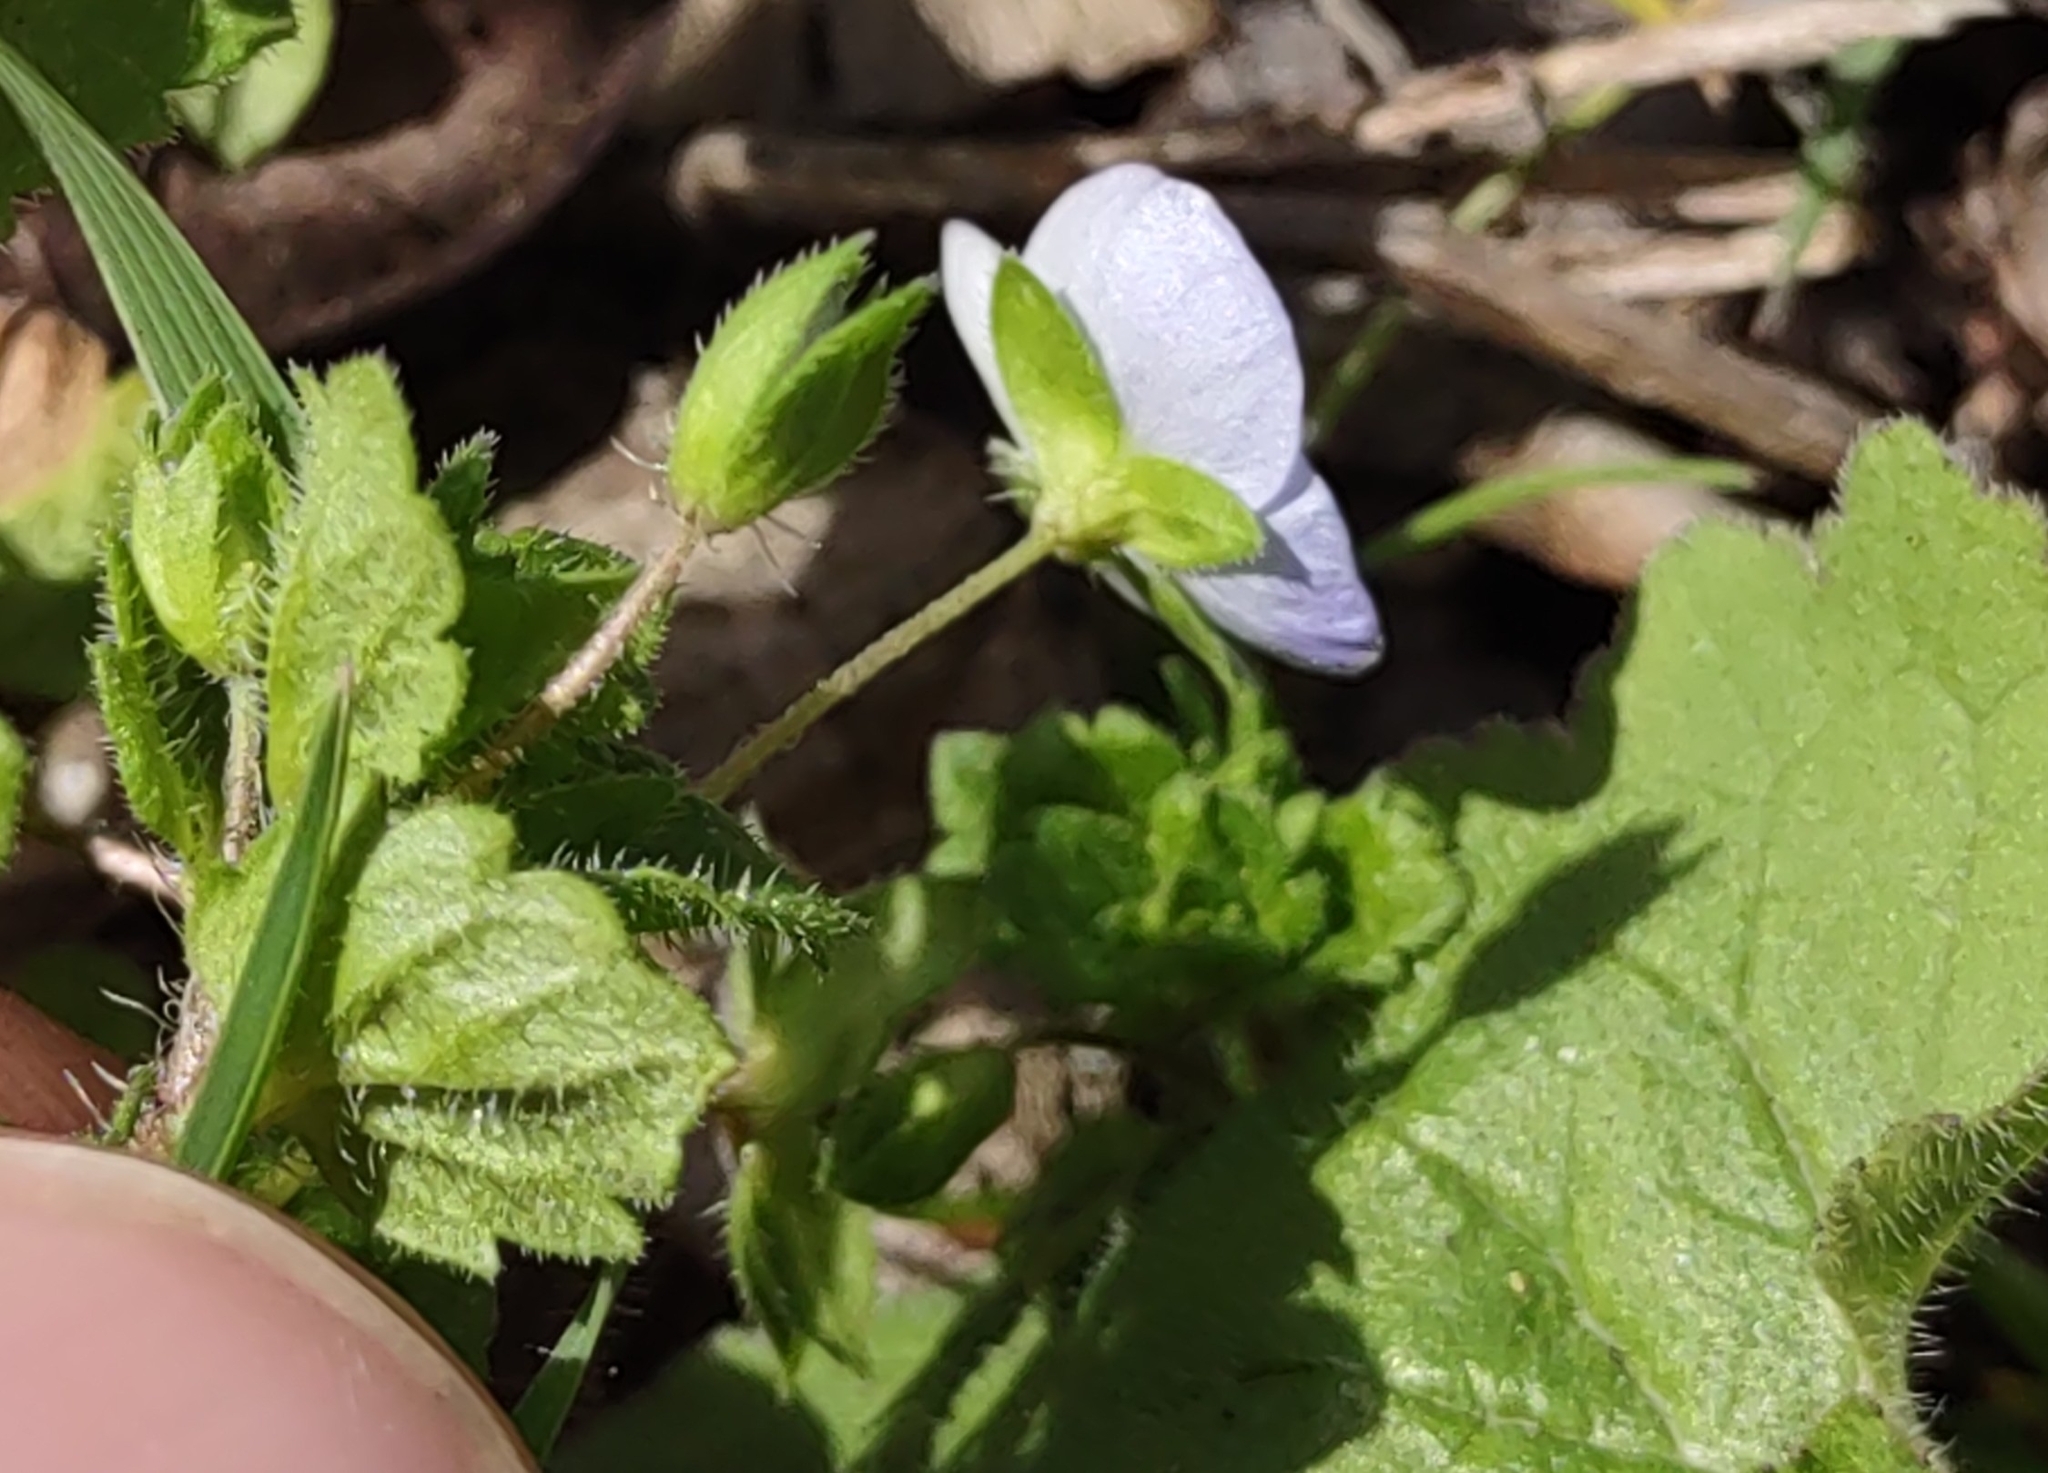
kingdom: Plantae
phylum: Tracheophyta
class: Magnoliopsida
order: Lamiales
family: Plantaginaceae
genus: Veronica
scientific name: Veronica persica
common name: Common field-speedwell
